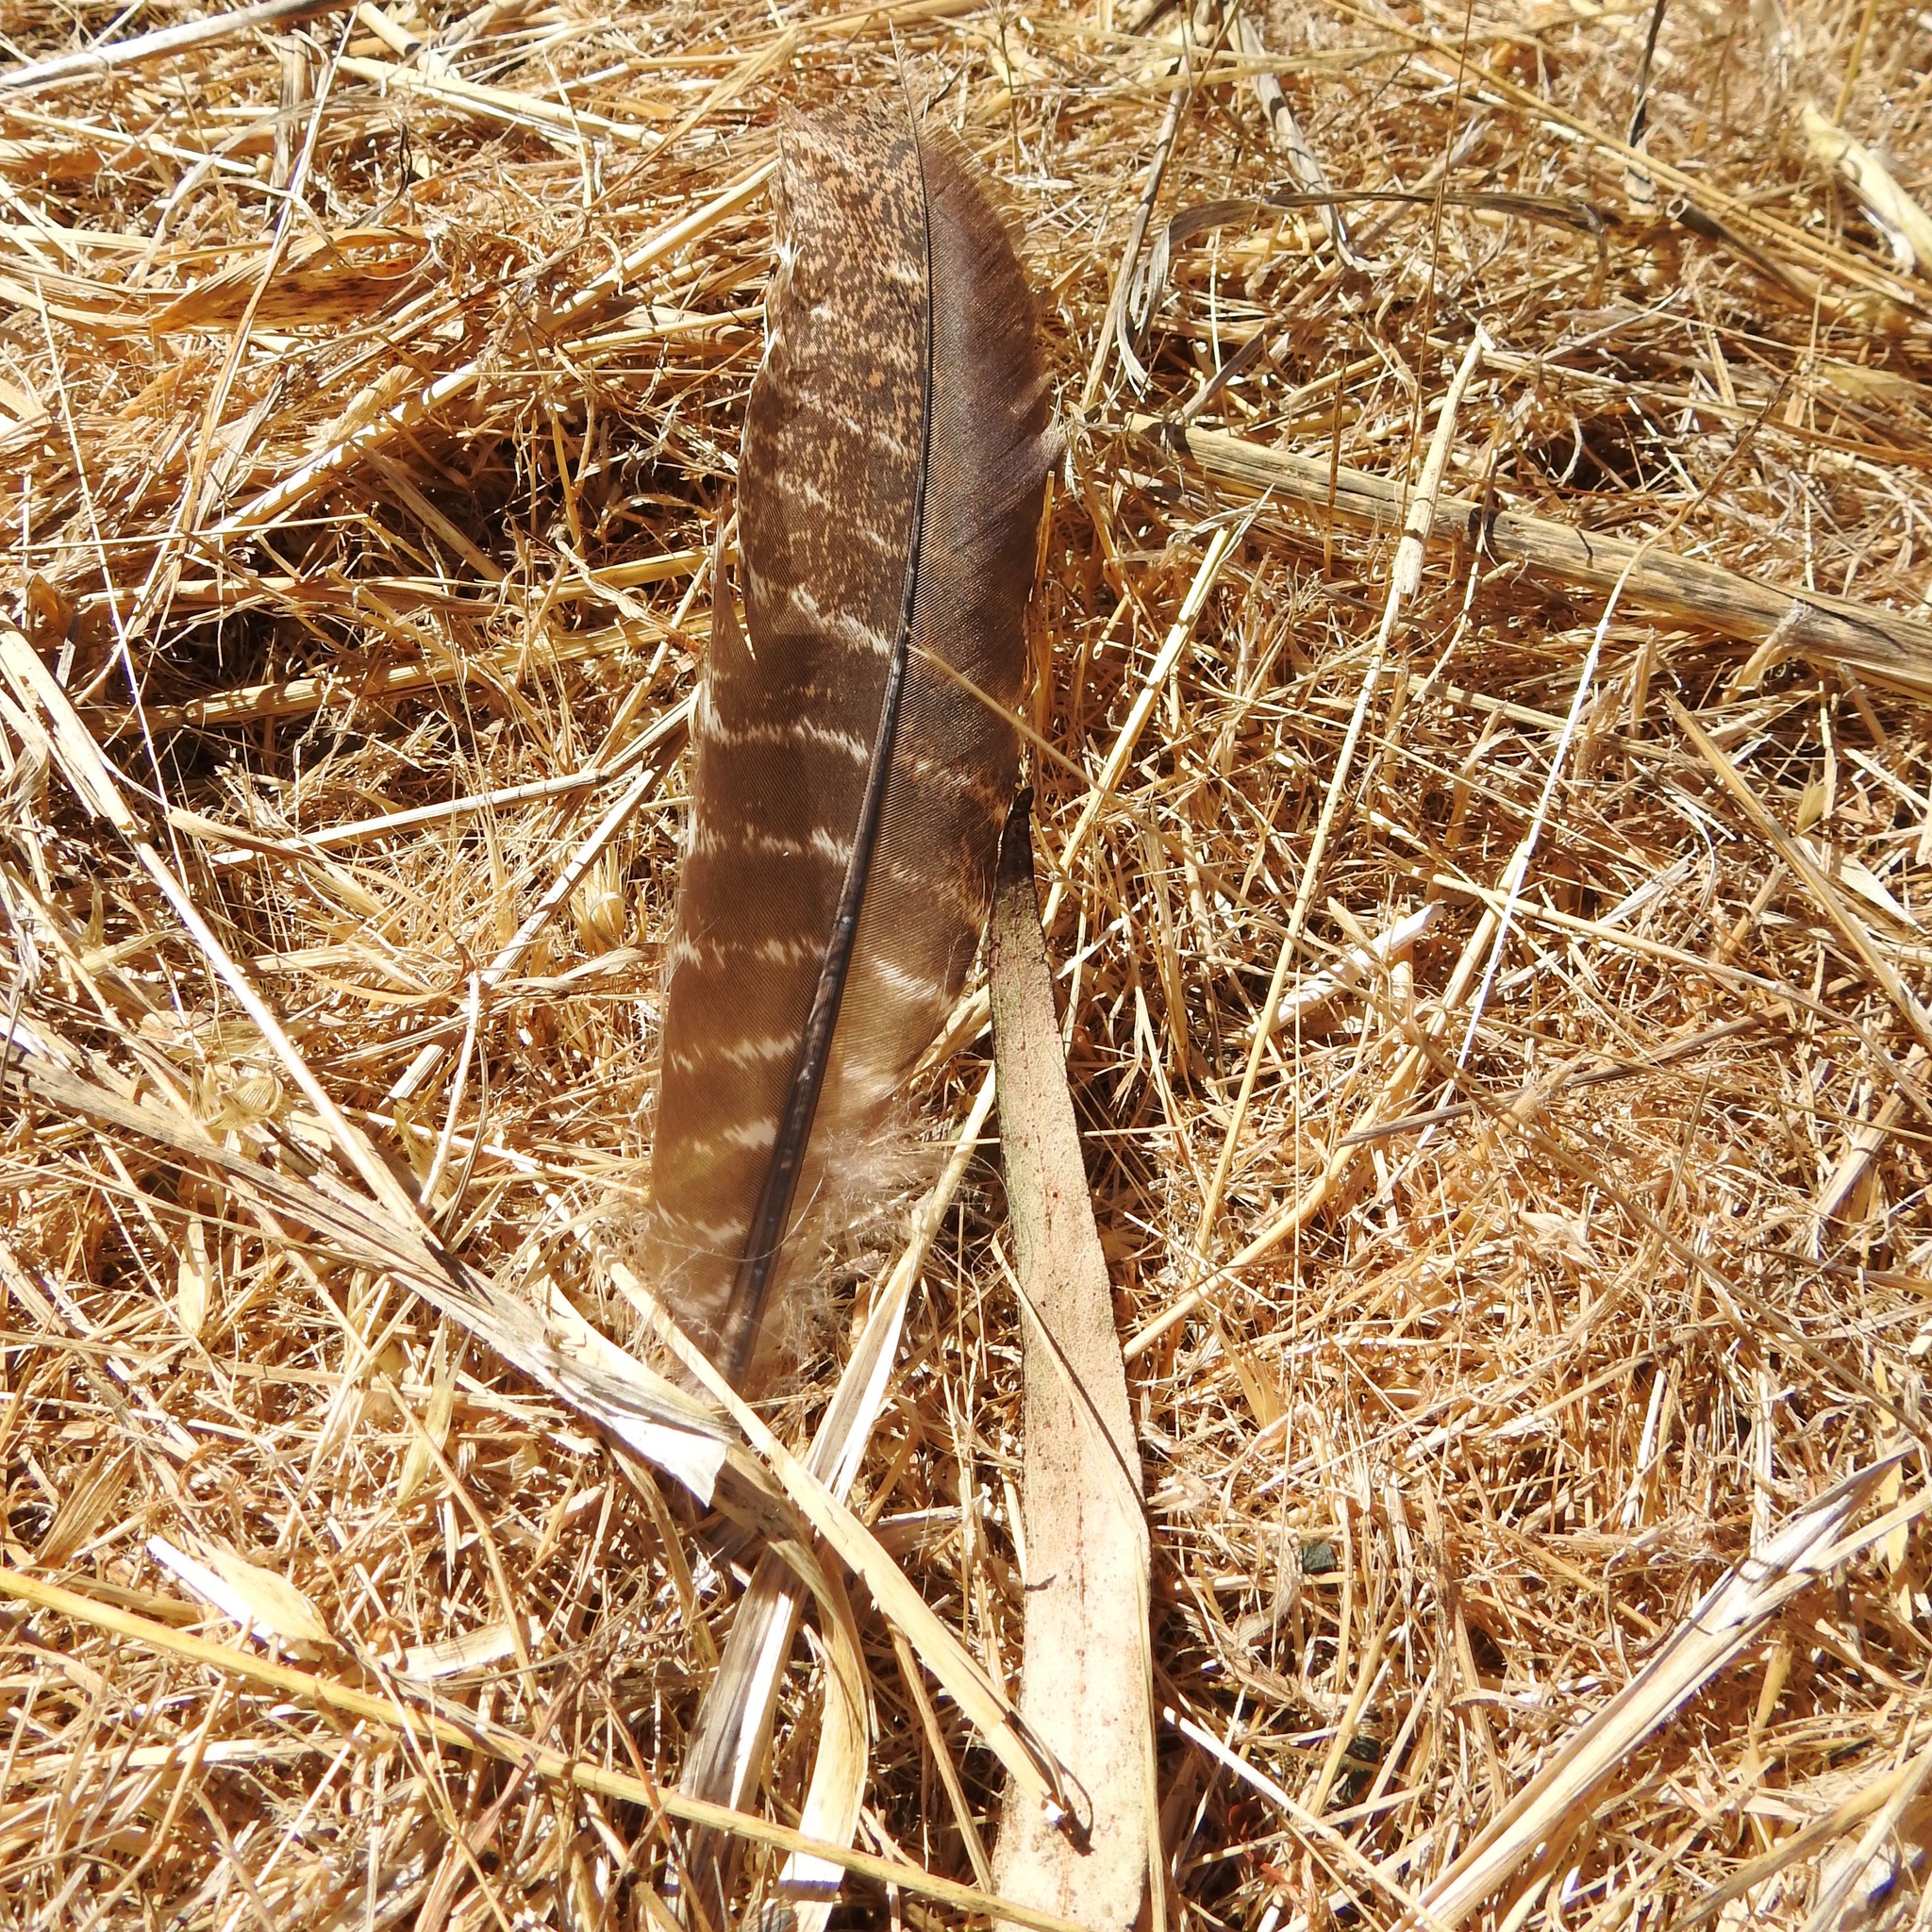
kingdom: Animalia
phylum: Chordata
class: Aves
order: Galliformes
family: Phasianidae
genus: Meleagris
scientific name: Meleagris gallopavo
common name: Wild turkey
